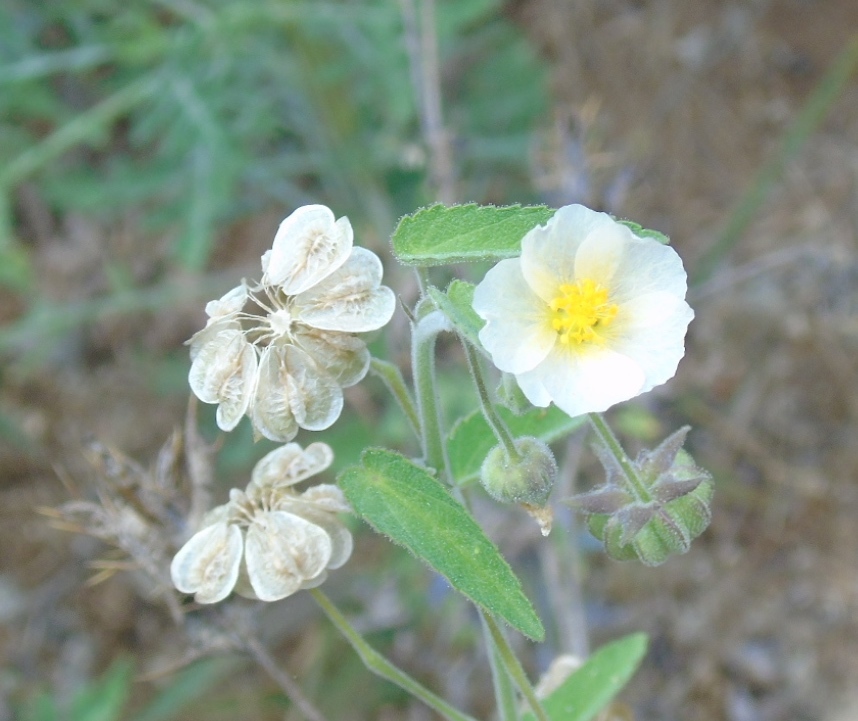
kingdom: Plantae
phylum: Tracheophyta
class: Magnoliopsida
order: Malvales
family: Malvaceae
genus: Gaya
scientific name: Gaya minutiflora
